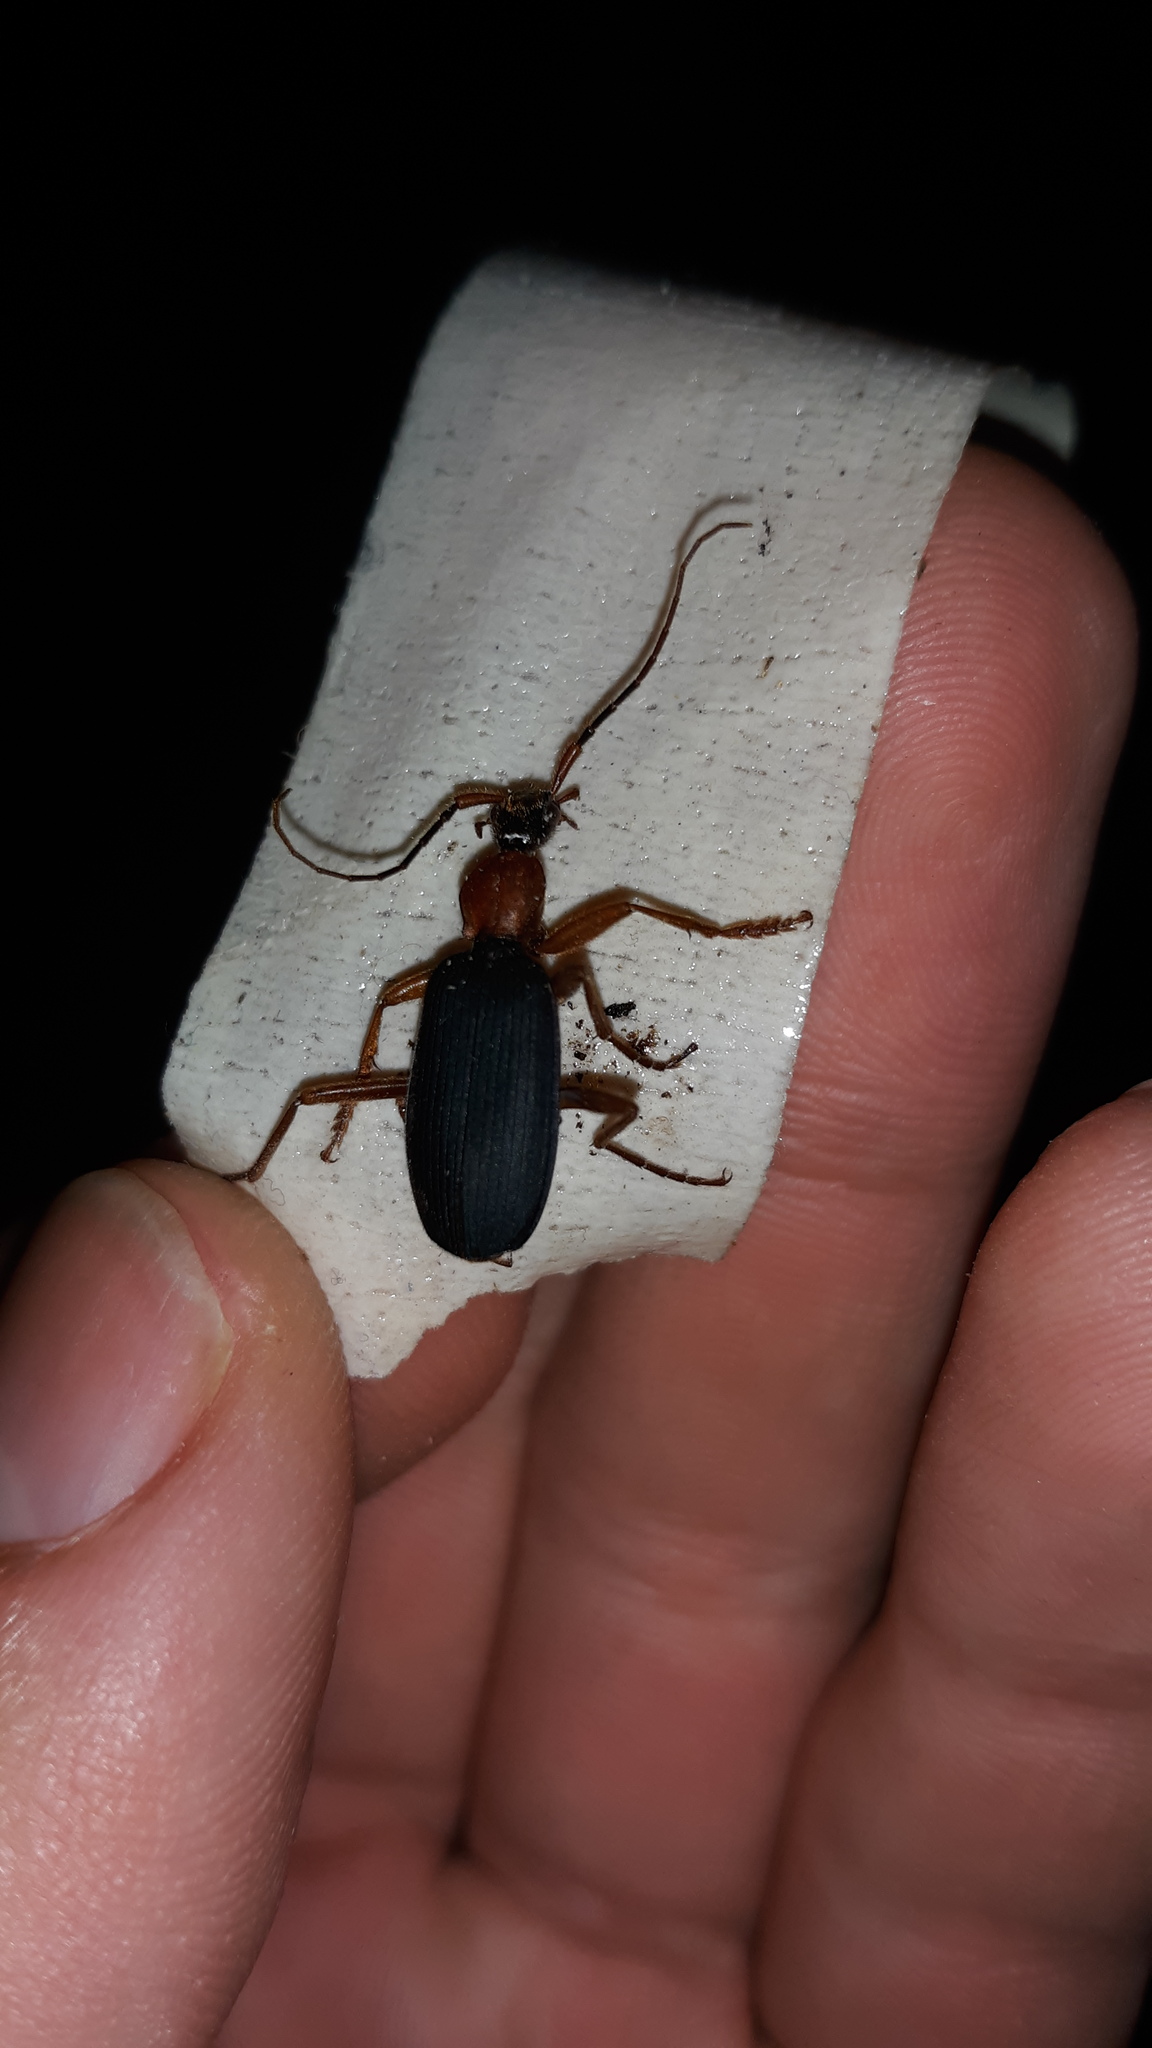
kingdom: Animalia
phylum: Arthropoda
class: Insecta
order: Coleoptera
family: Carabidae
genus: Galerita
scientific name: Galerita bicolor
